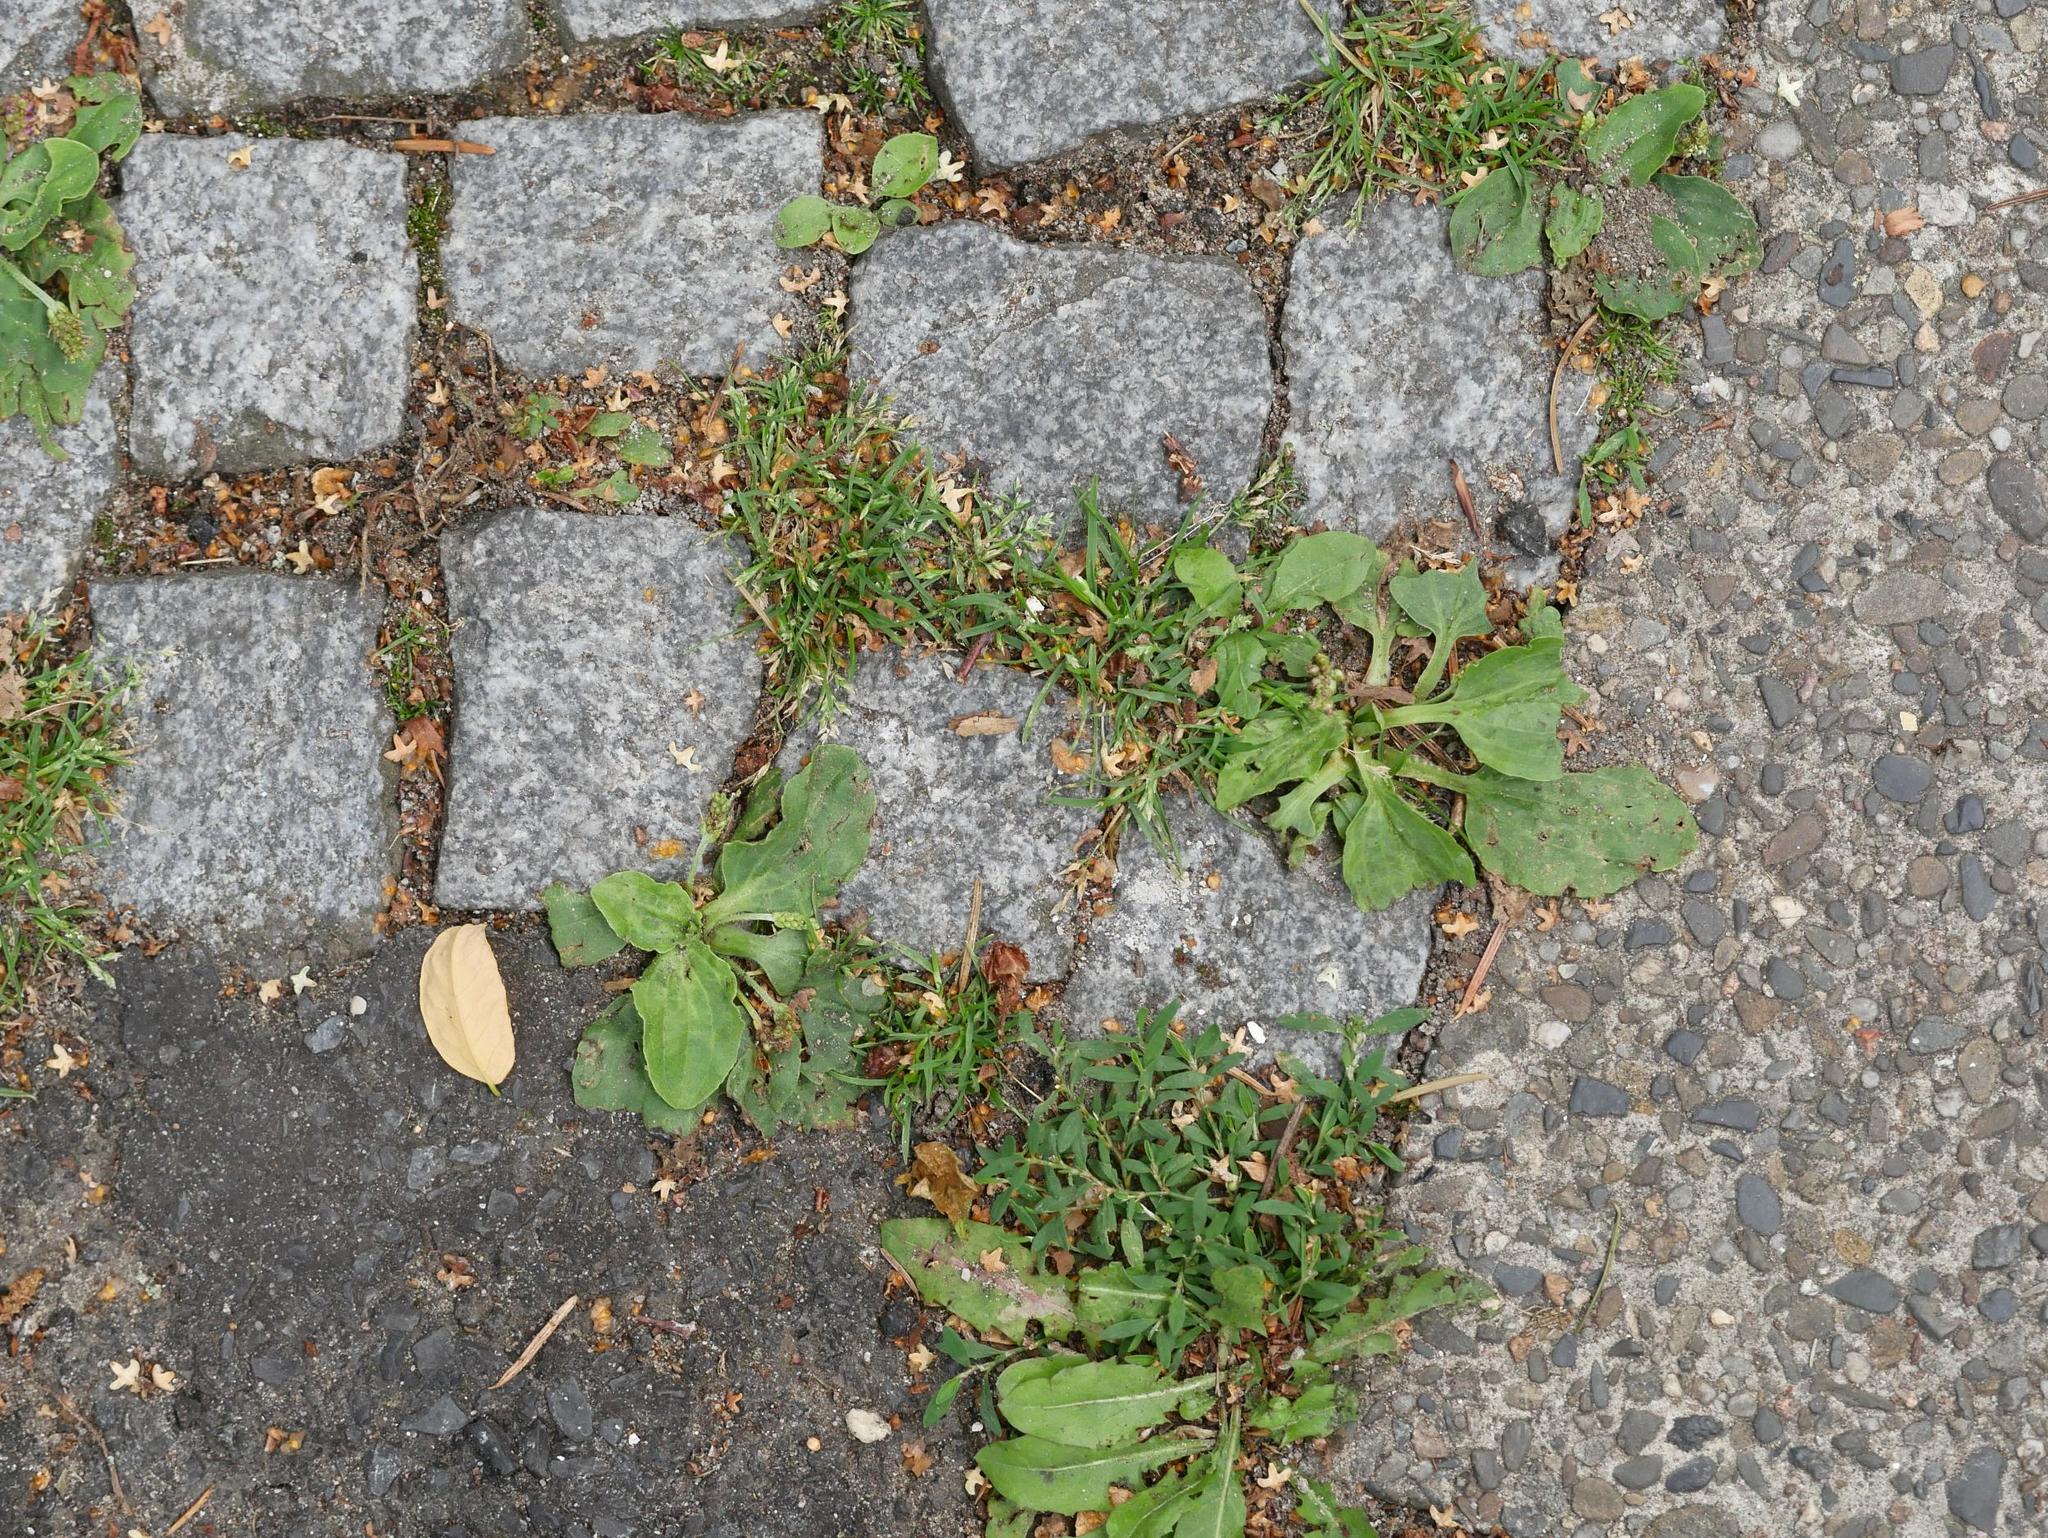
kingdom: Plantae
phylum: Tracheophyta
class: Magnoliopsida
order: Lamiales
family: Plantaginaceae
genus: Plantago
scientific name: Plantago major
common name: Common plantain
